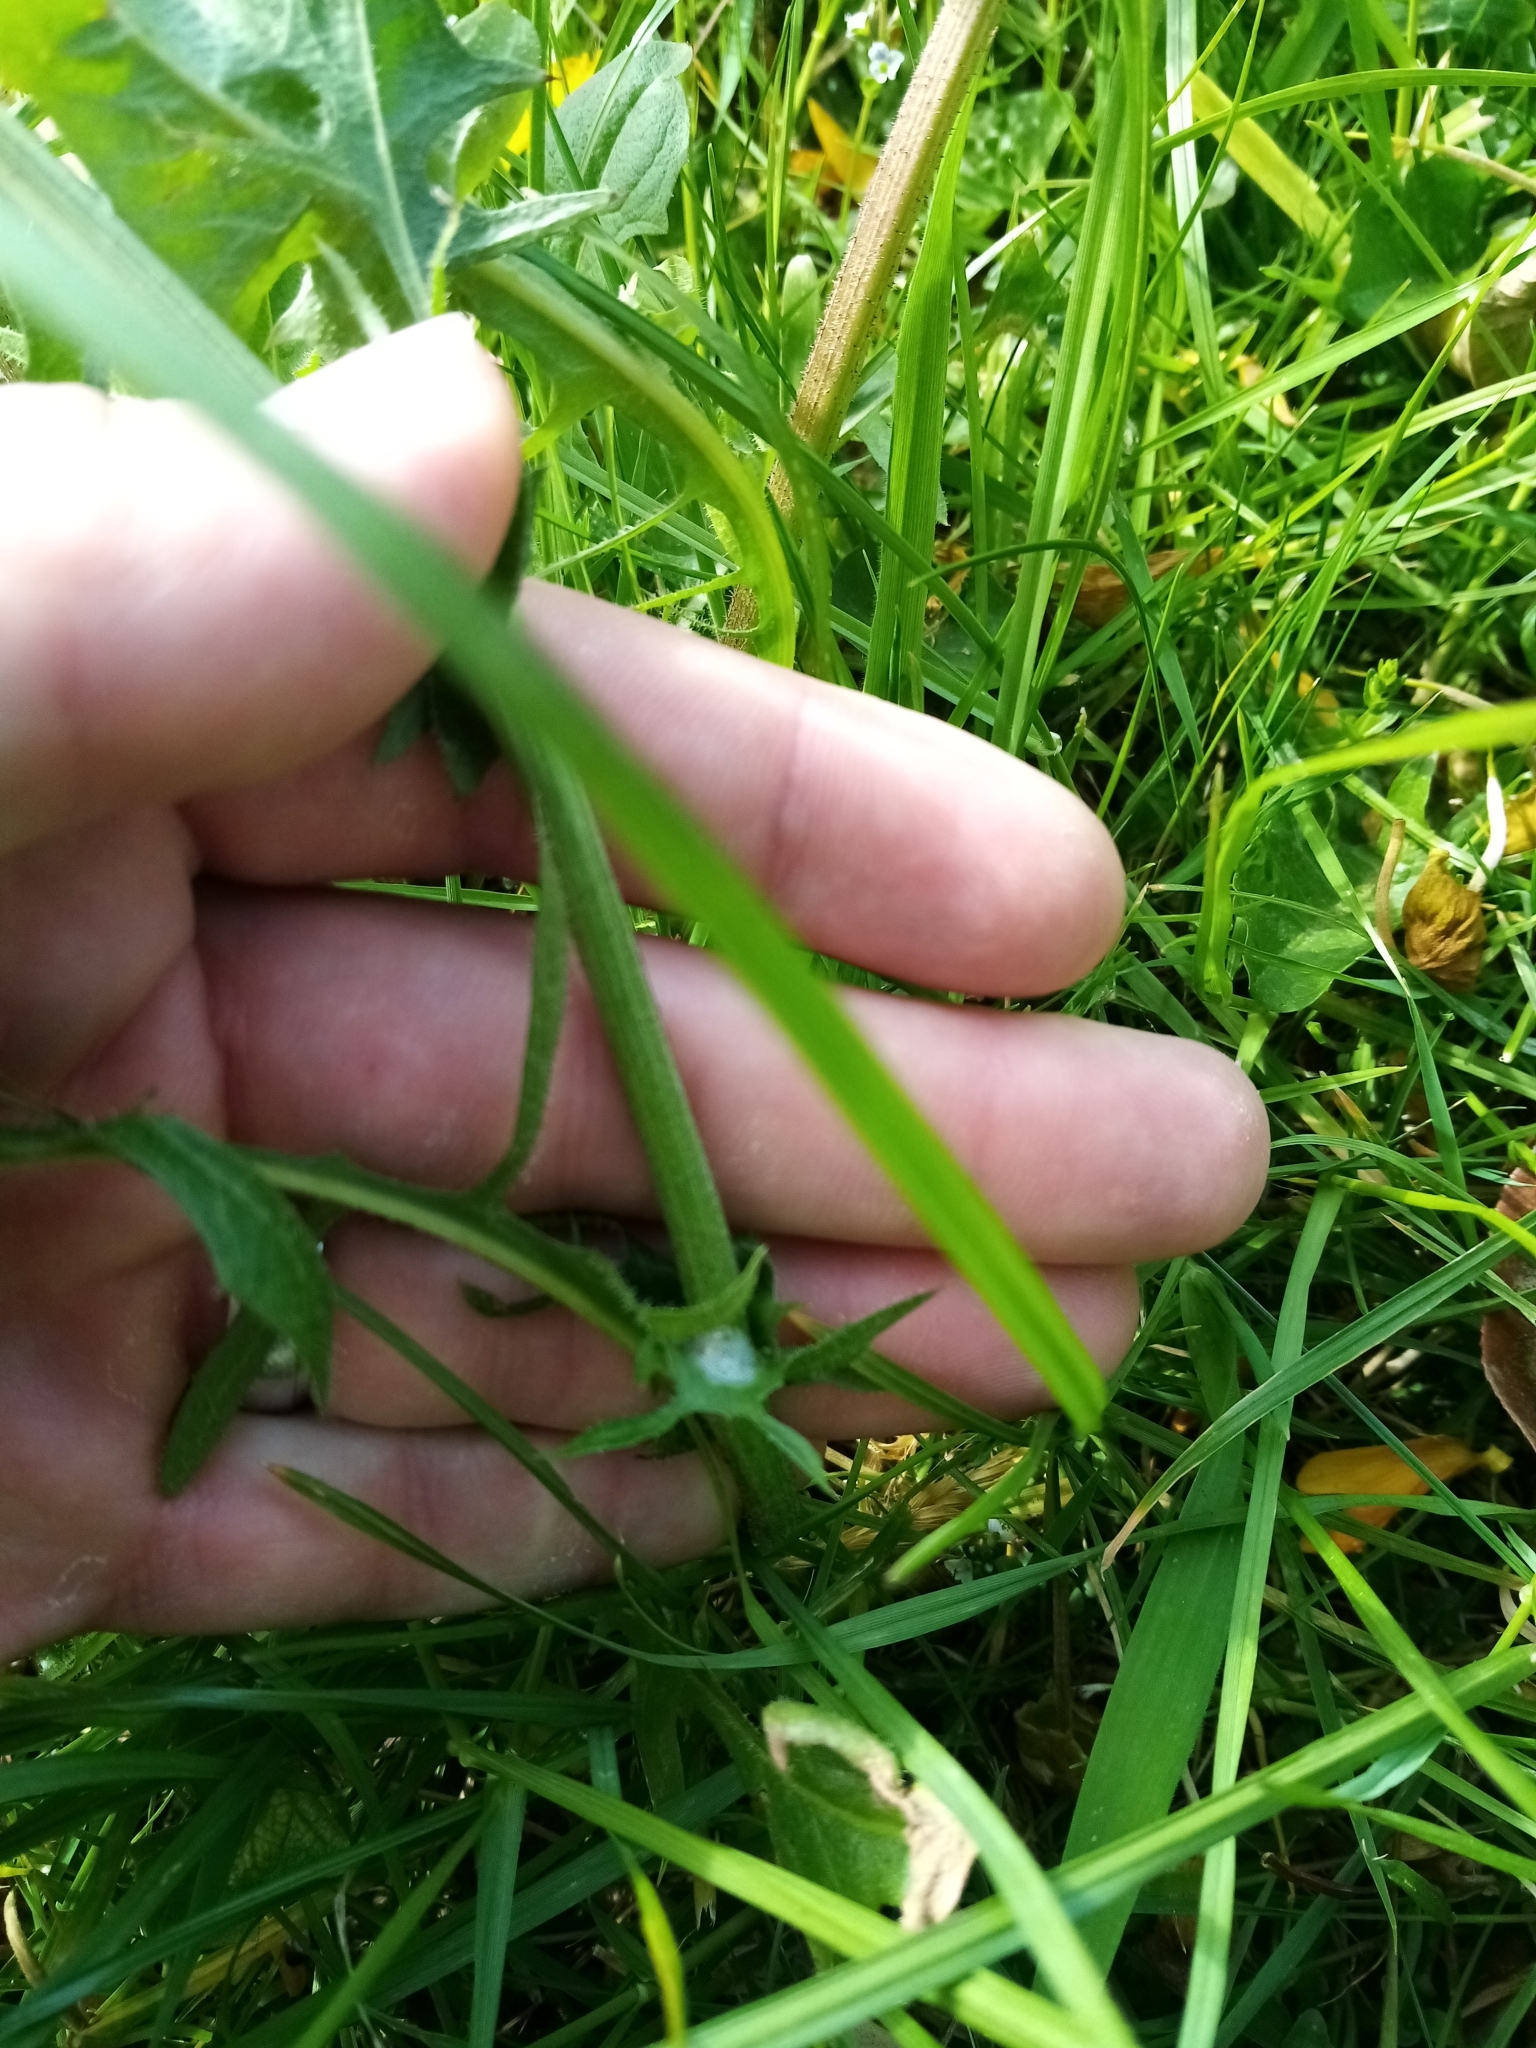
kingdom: Plantae
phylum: Tracheophyta
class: Magnoliopsida
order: Asterales
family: Asteraceae
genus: Crepis
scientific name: Crepis capillaris
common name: Smooth hawksbeard
